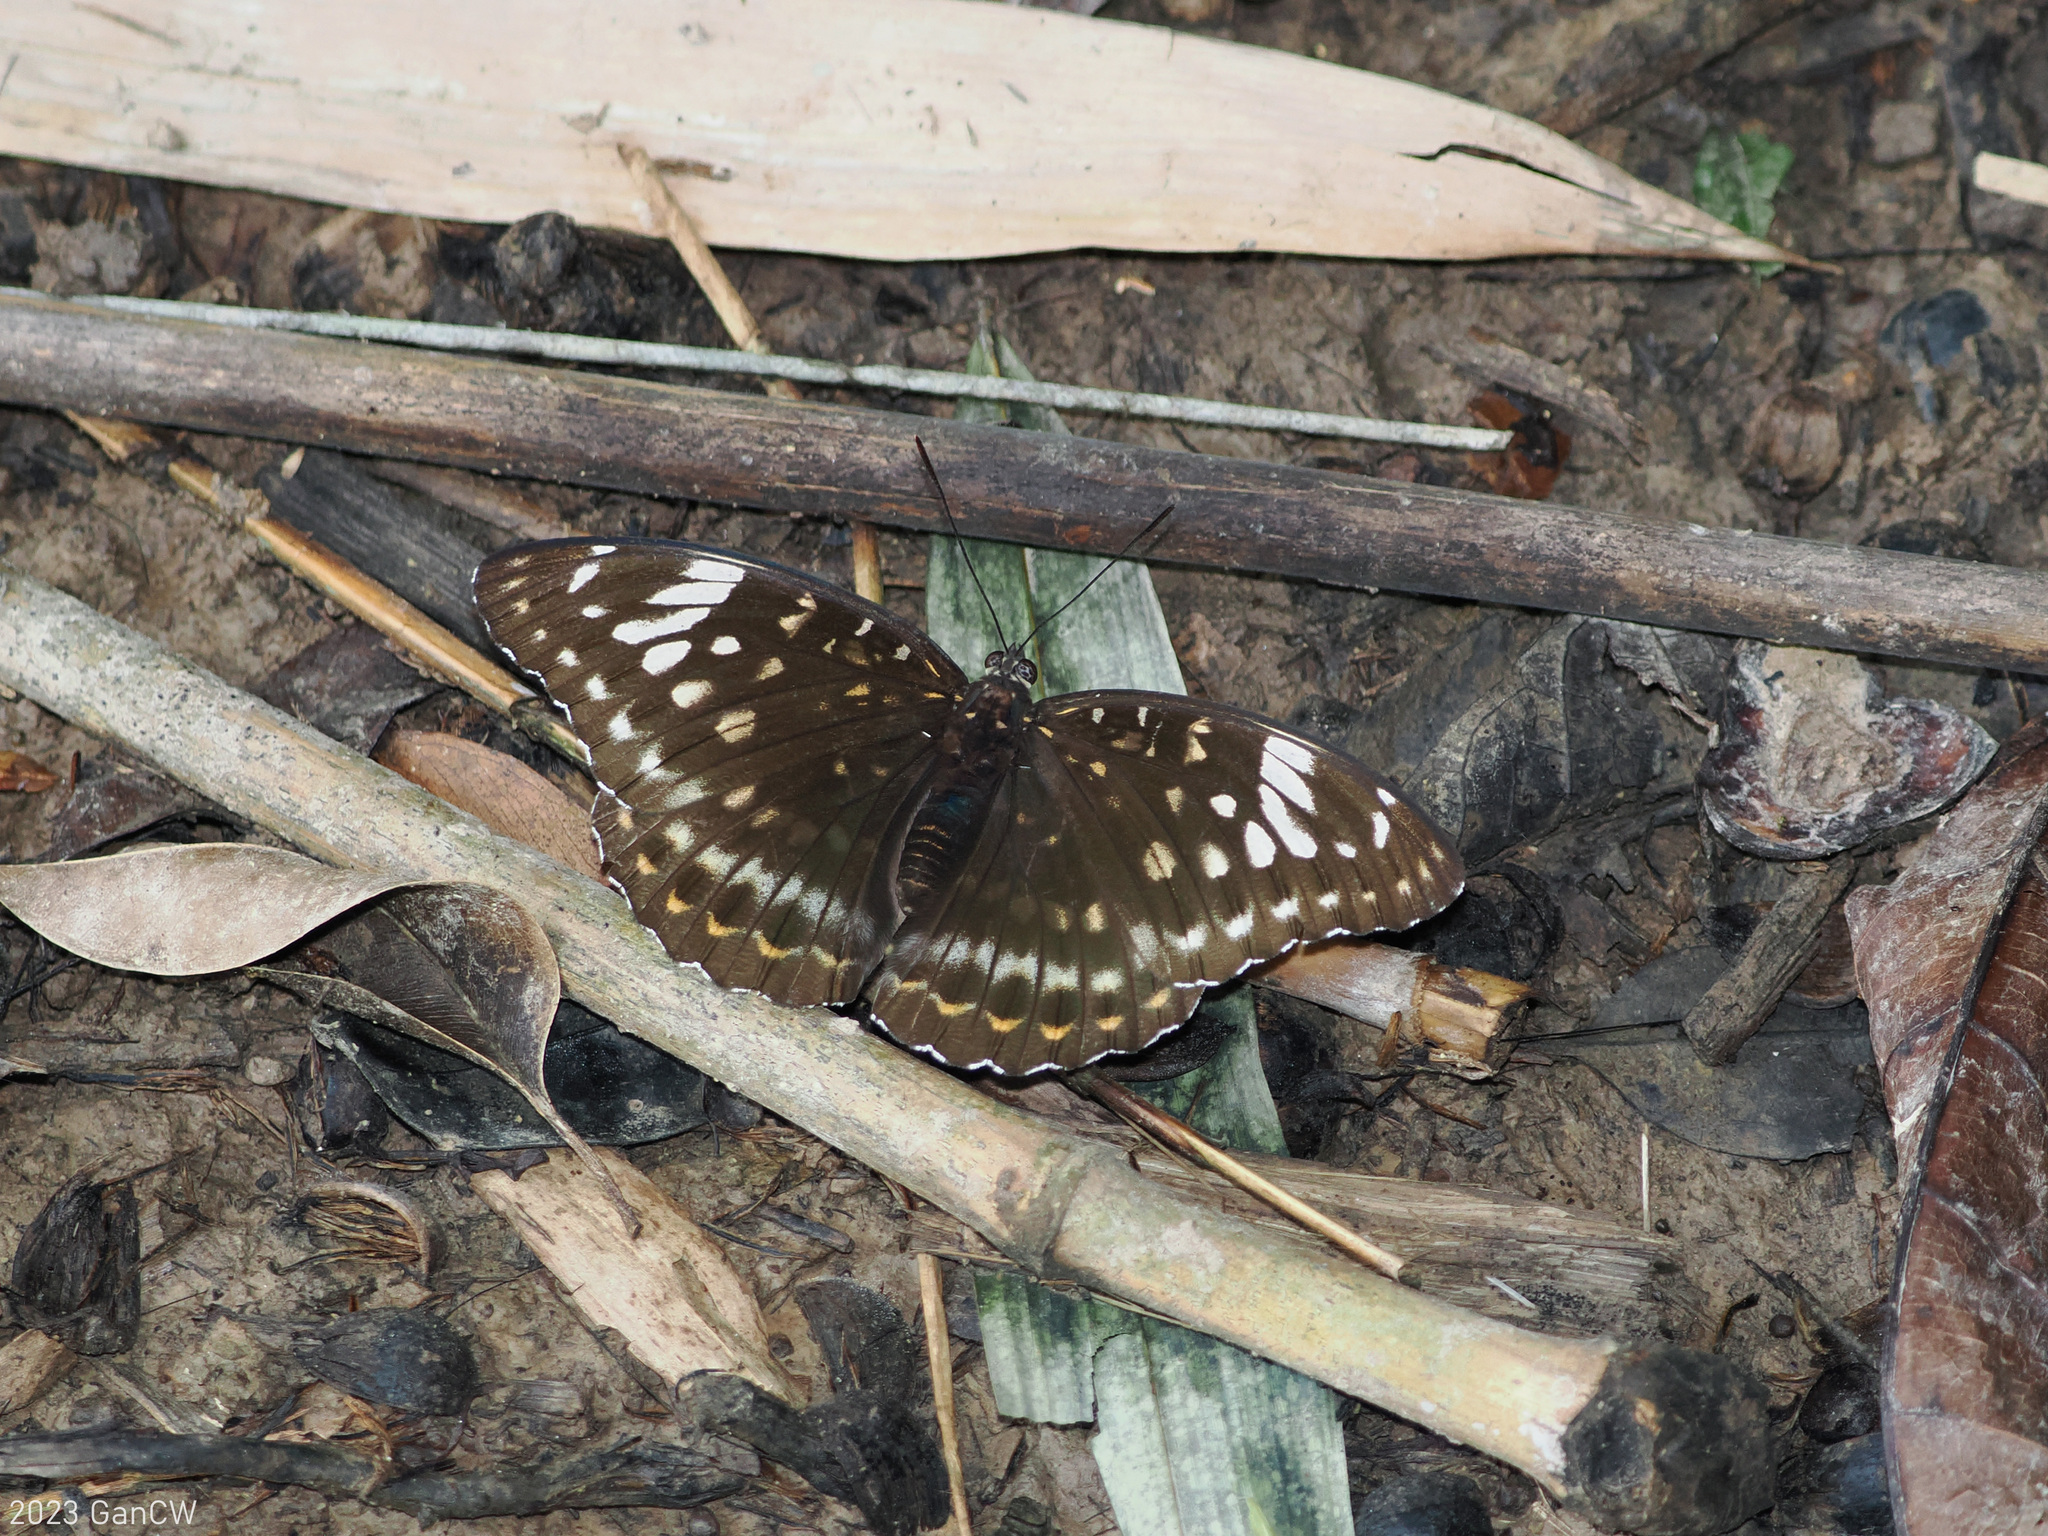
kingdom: Animalia
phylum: Arthropoda
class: Insecta
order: Lepidoptera
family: Nymphalidae
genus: Lexias
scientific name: Lexias aeetes
